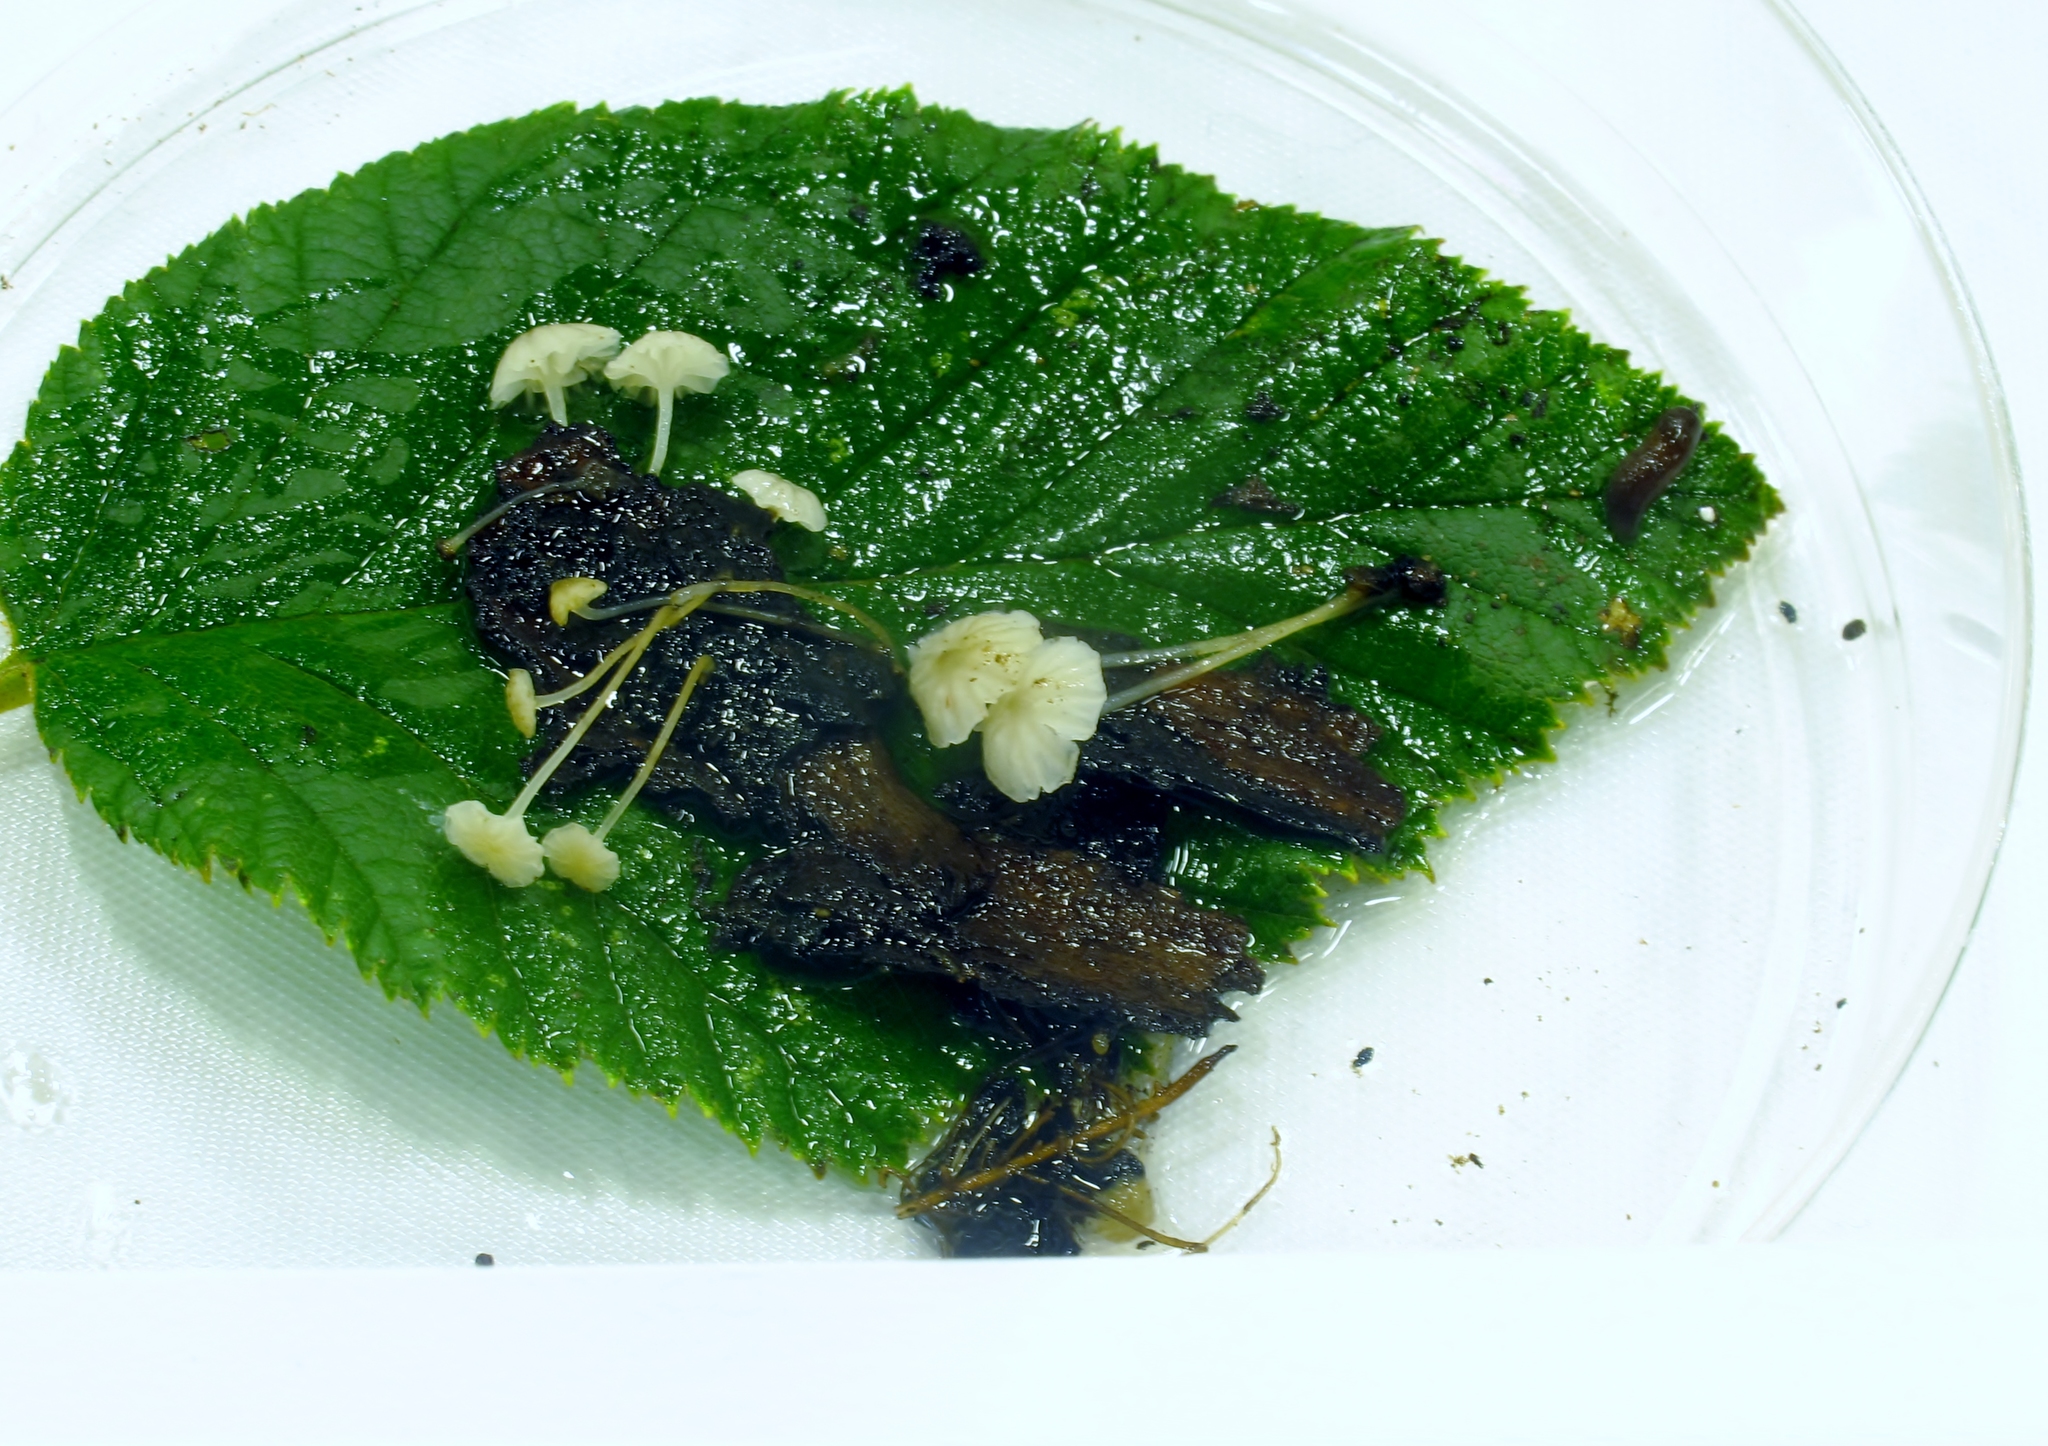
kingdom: Fungi
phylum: Basidiomycota
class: Agaricomycetes
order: Agaricales
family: Porotheleaceae
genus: Phloeomana
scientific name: Phloeomana speirea
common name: Bark bonnet
